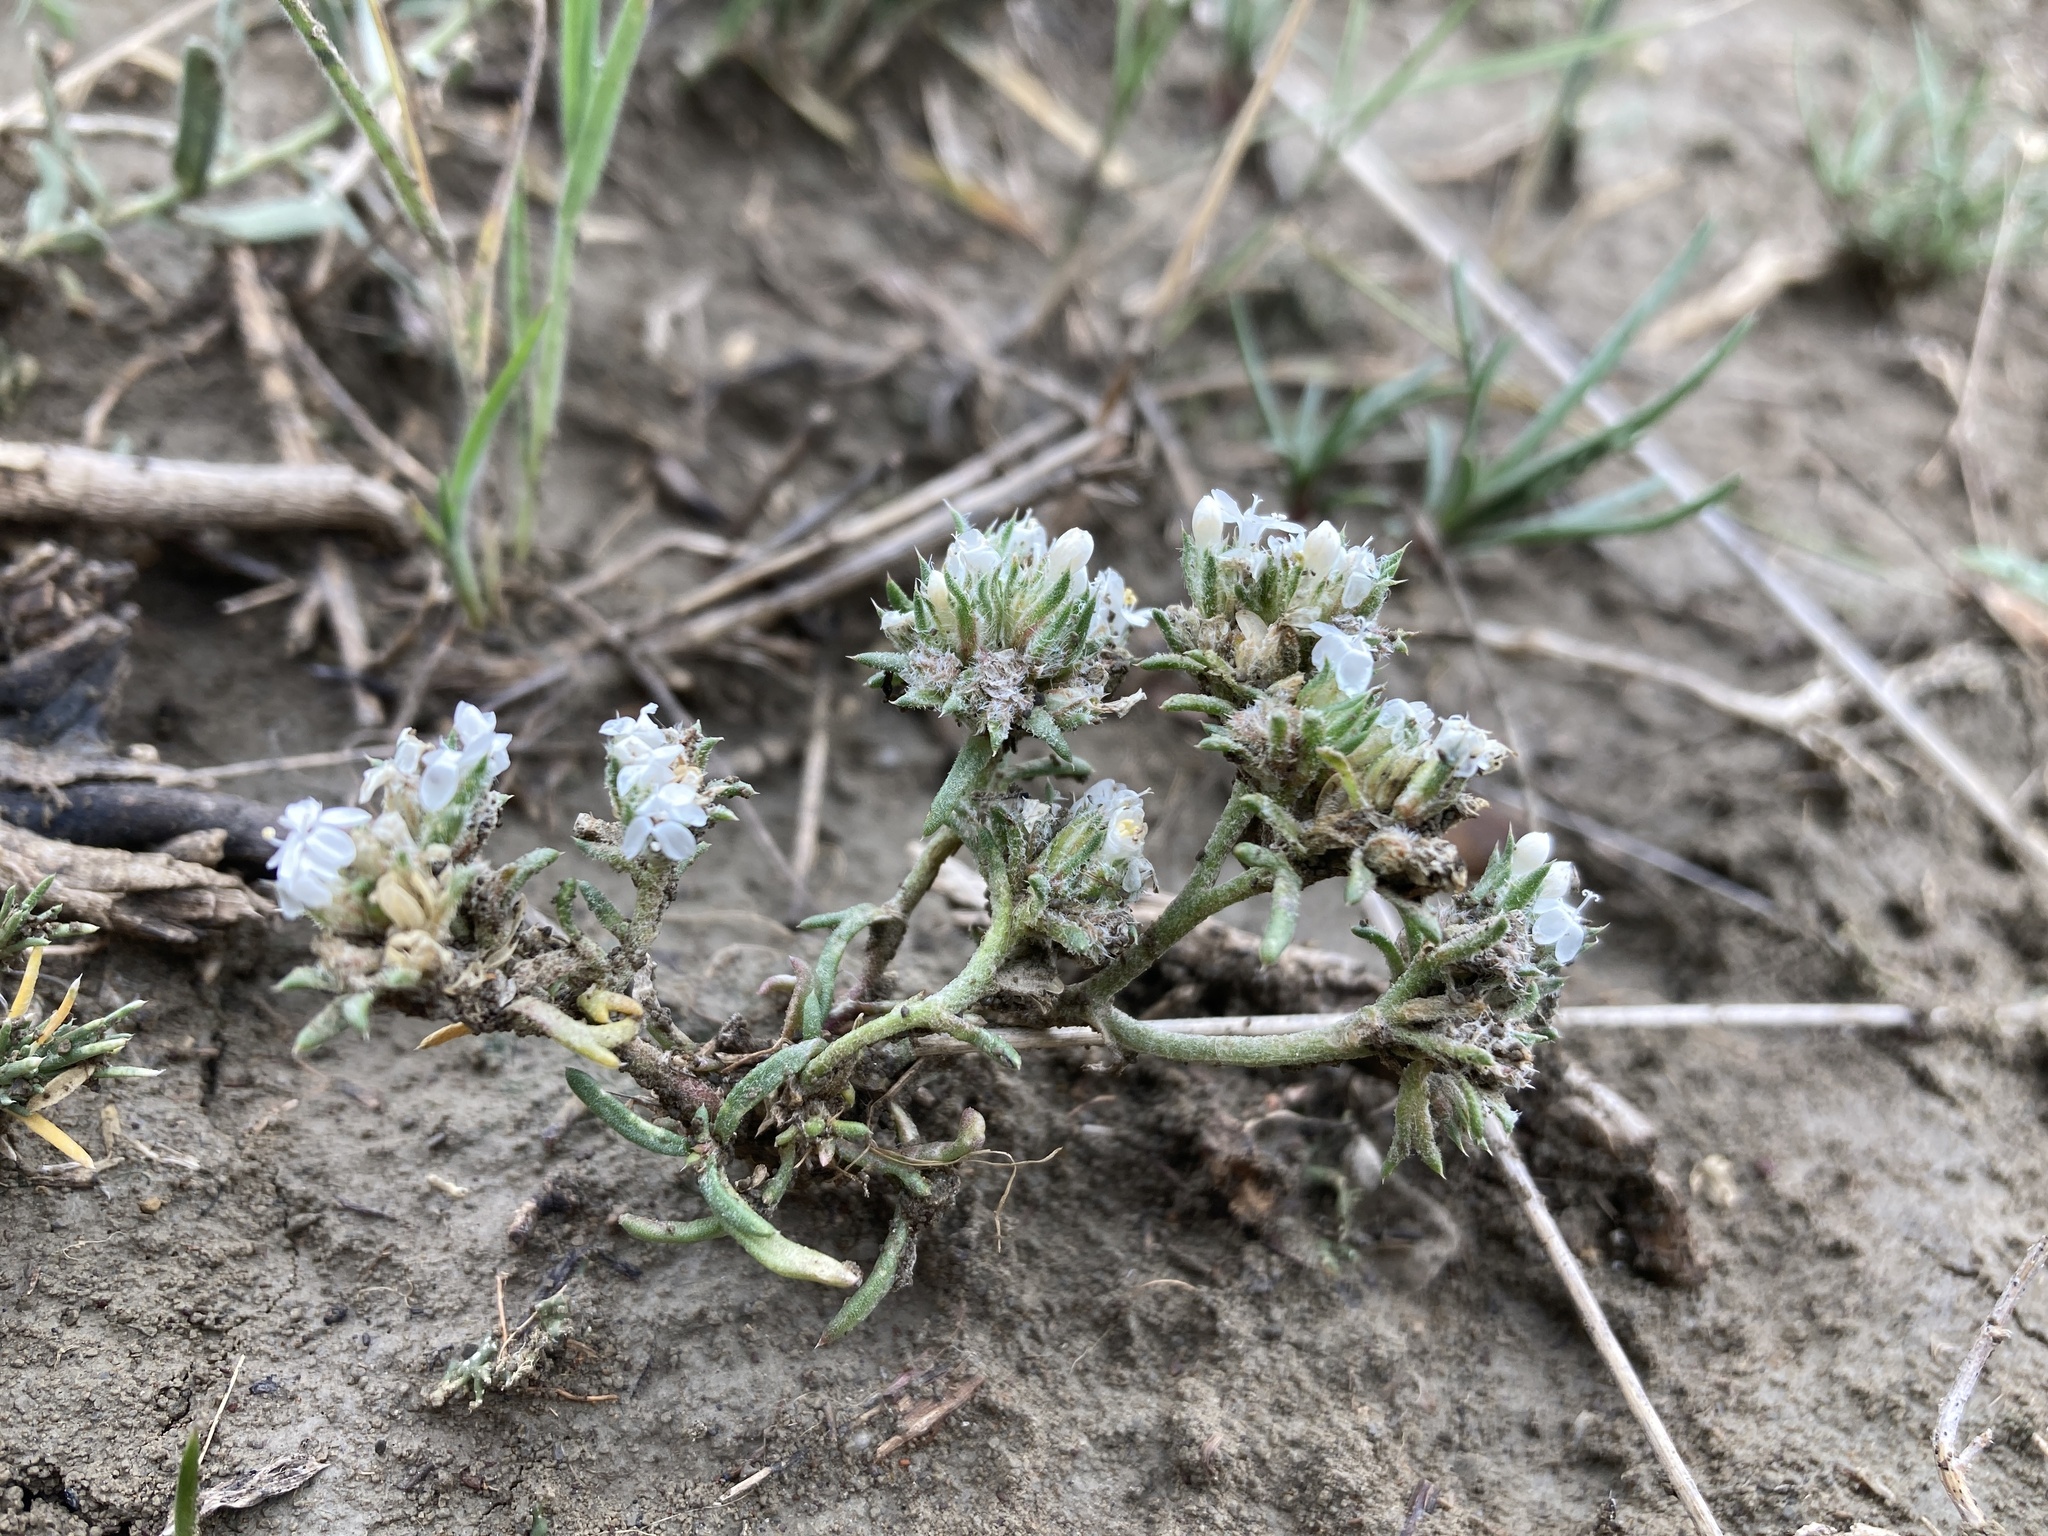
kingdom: Plantae
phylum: Tracheophyta
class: Magnoliopsida
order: Ericales
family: Polemoniaceae
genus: Ipomopsis
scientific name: Ipomopsis congesta
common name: Ball-head gilia
